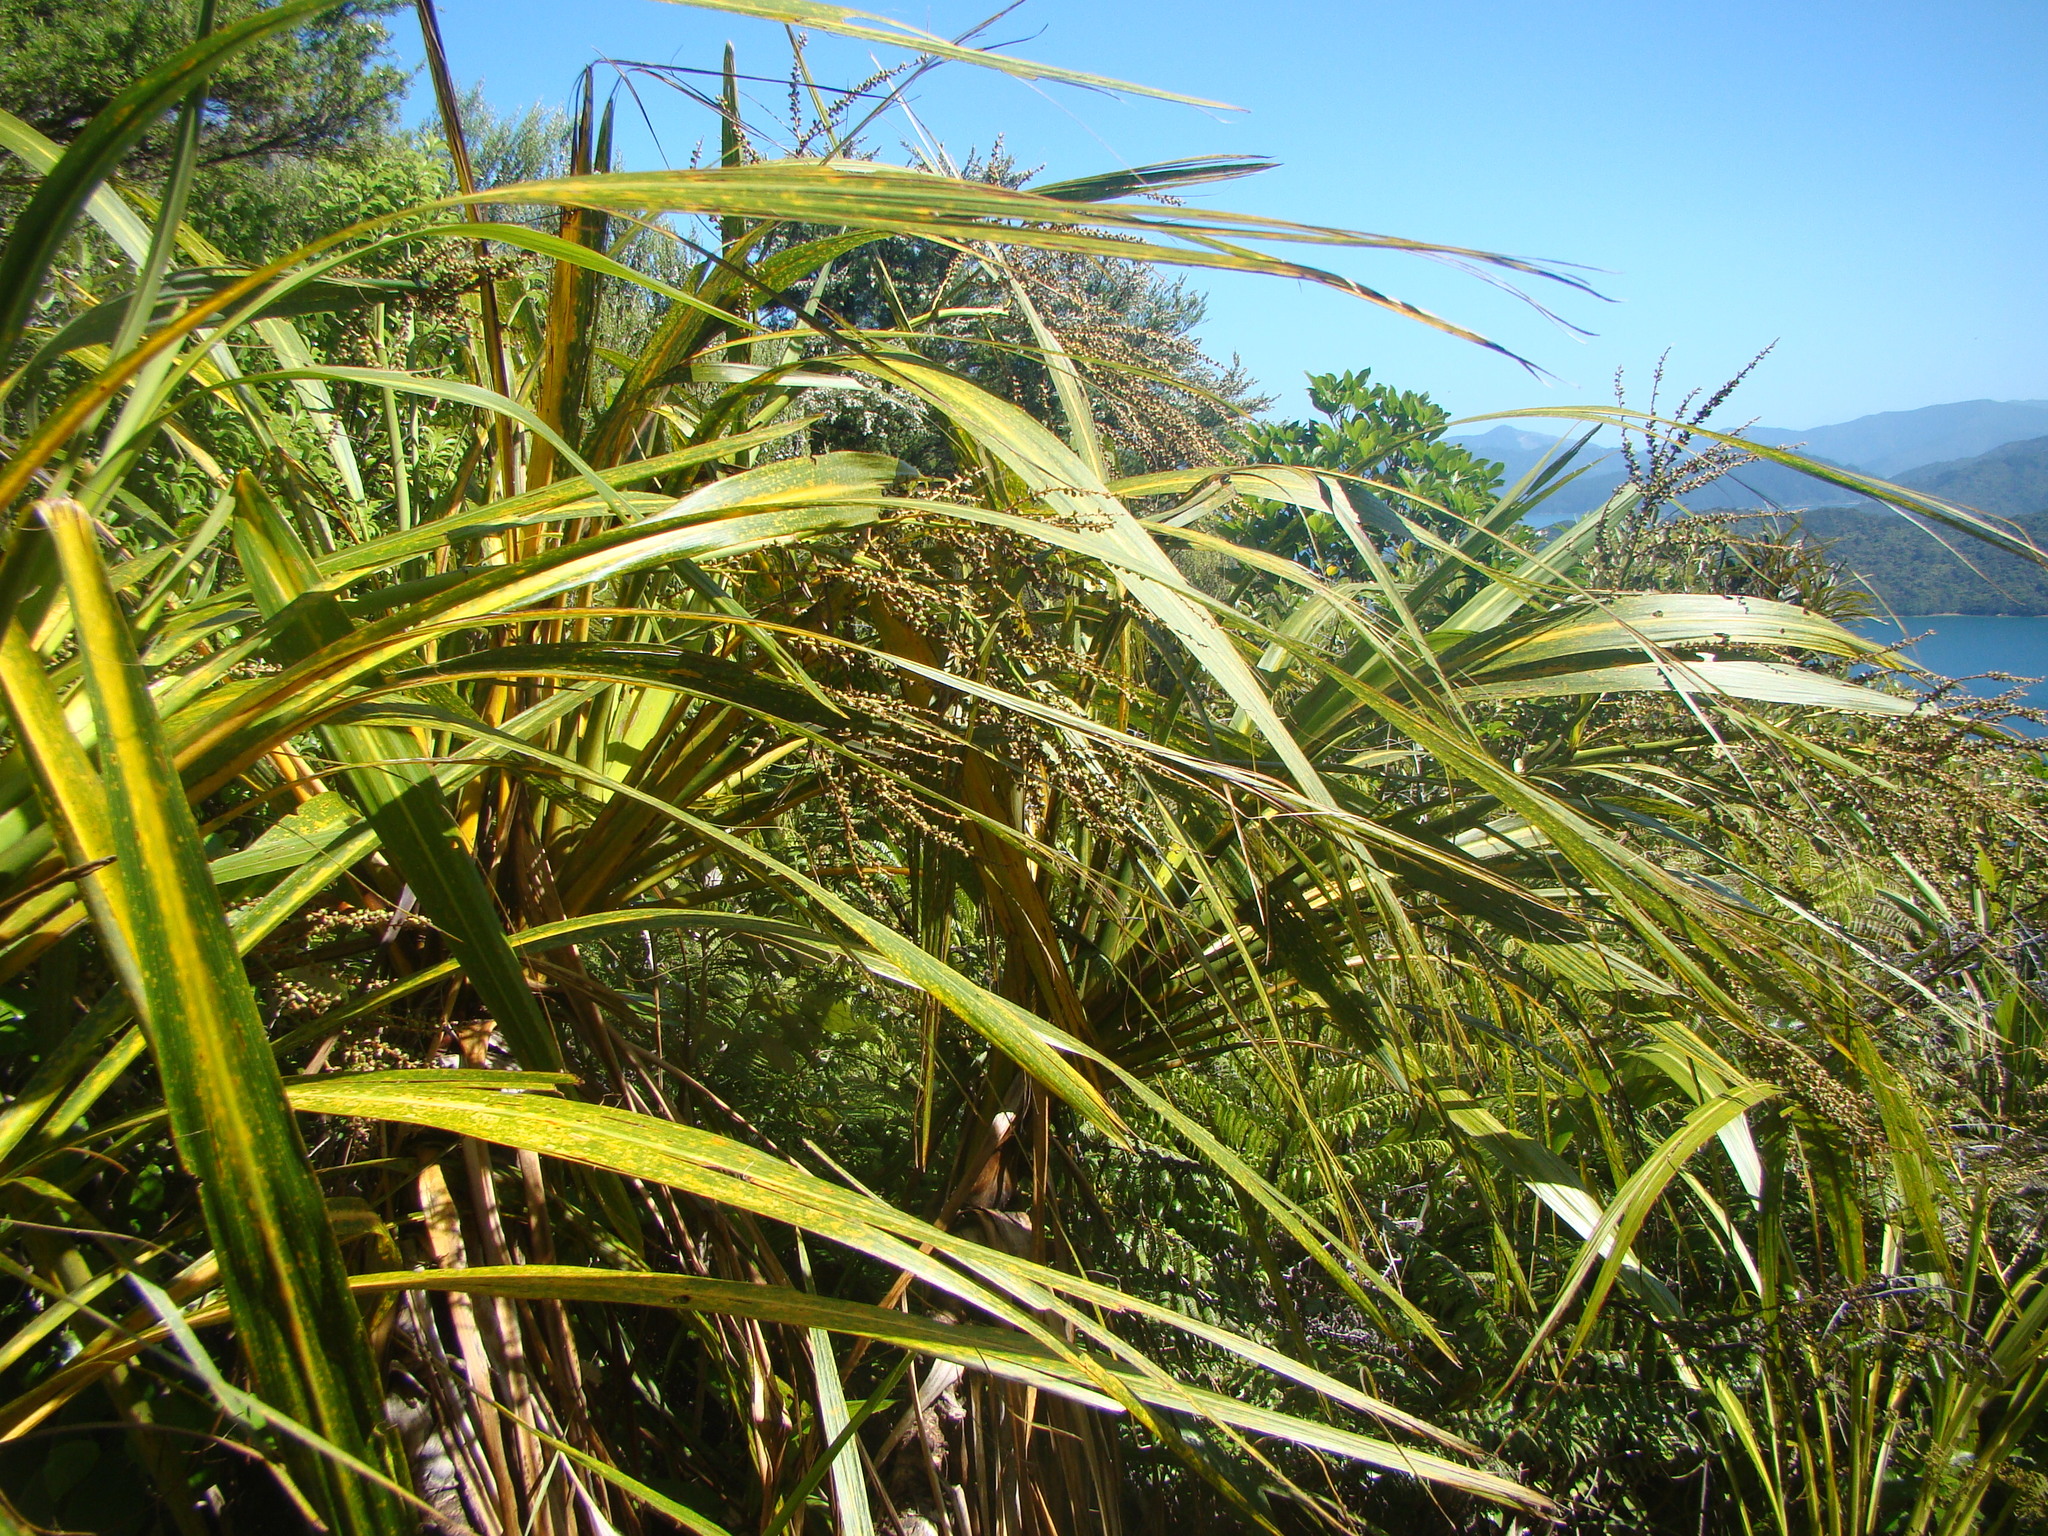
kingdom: Plantae
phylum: Tracheophyta
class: Liliopsida
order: Asparagales
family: Asparagaceae
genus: Cordyline
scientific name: Cordyline banksii
